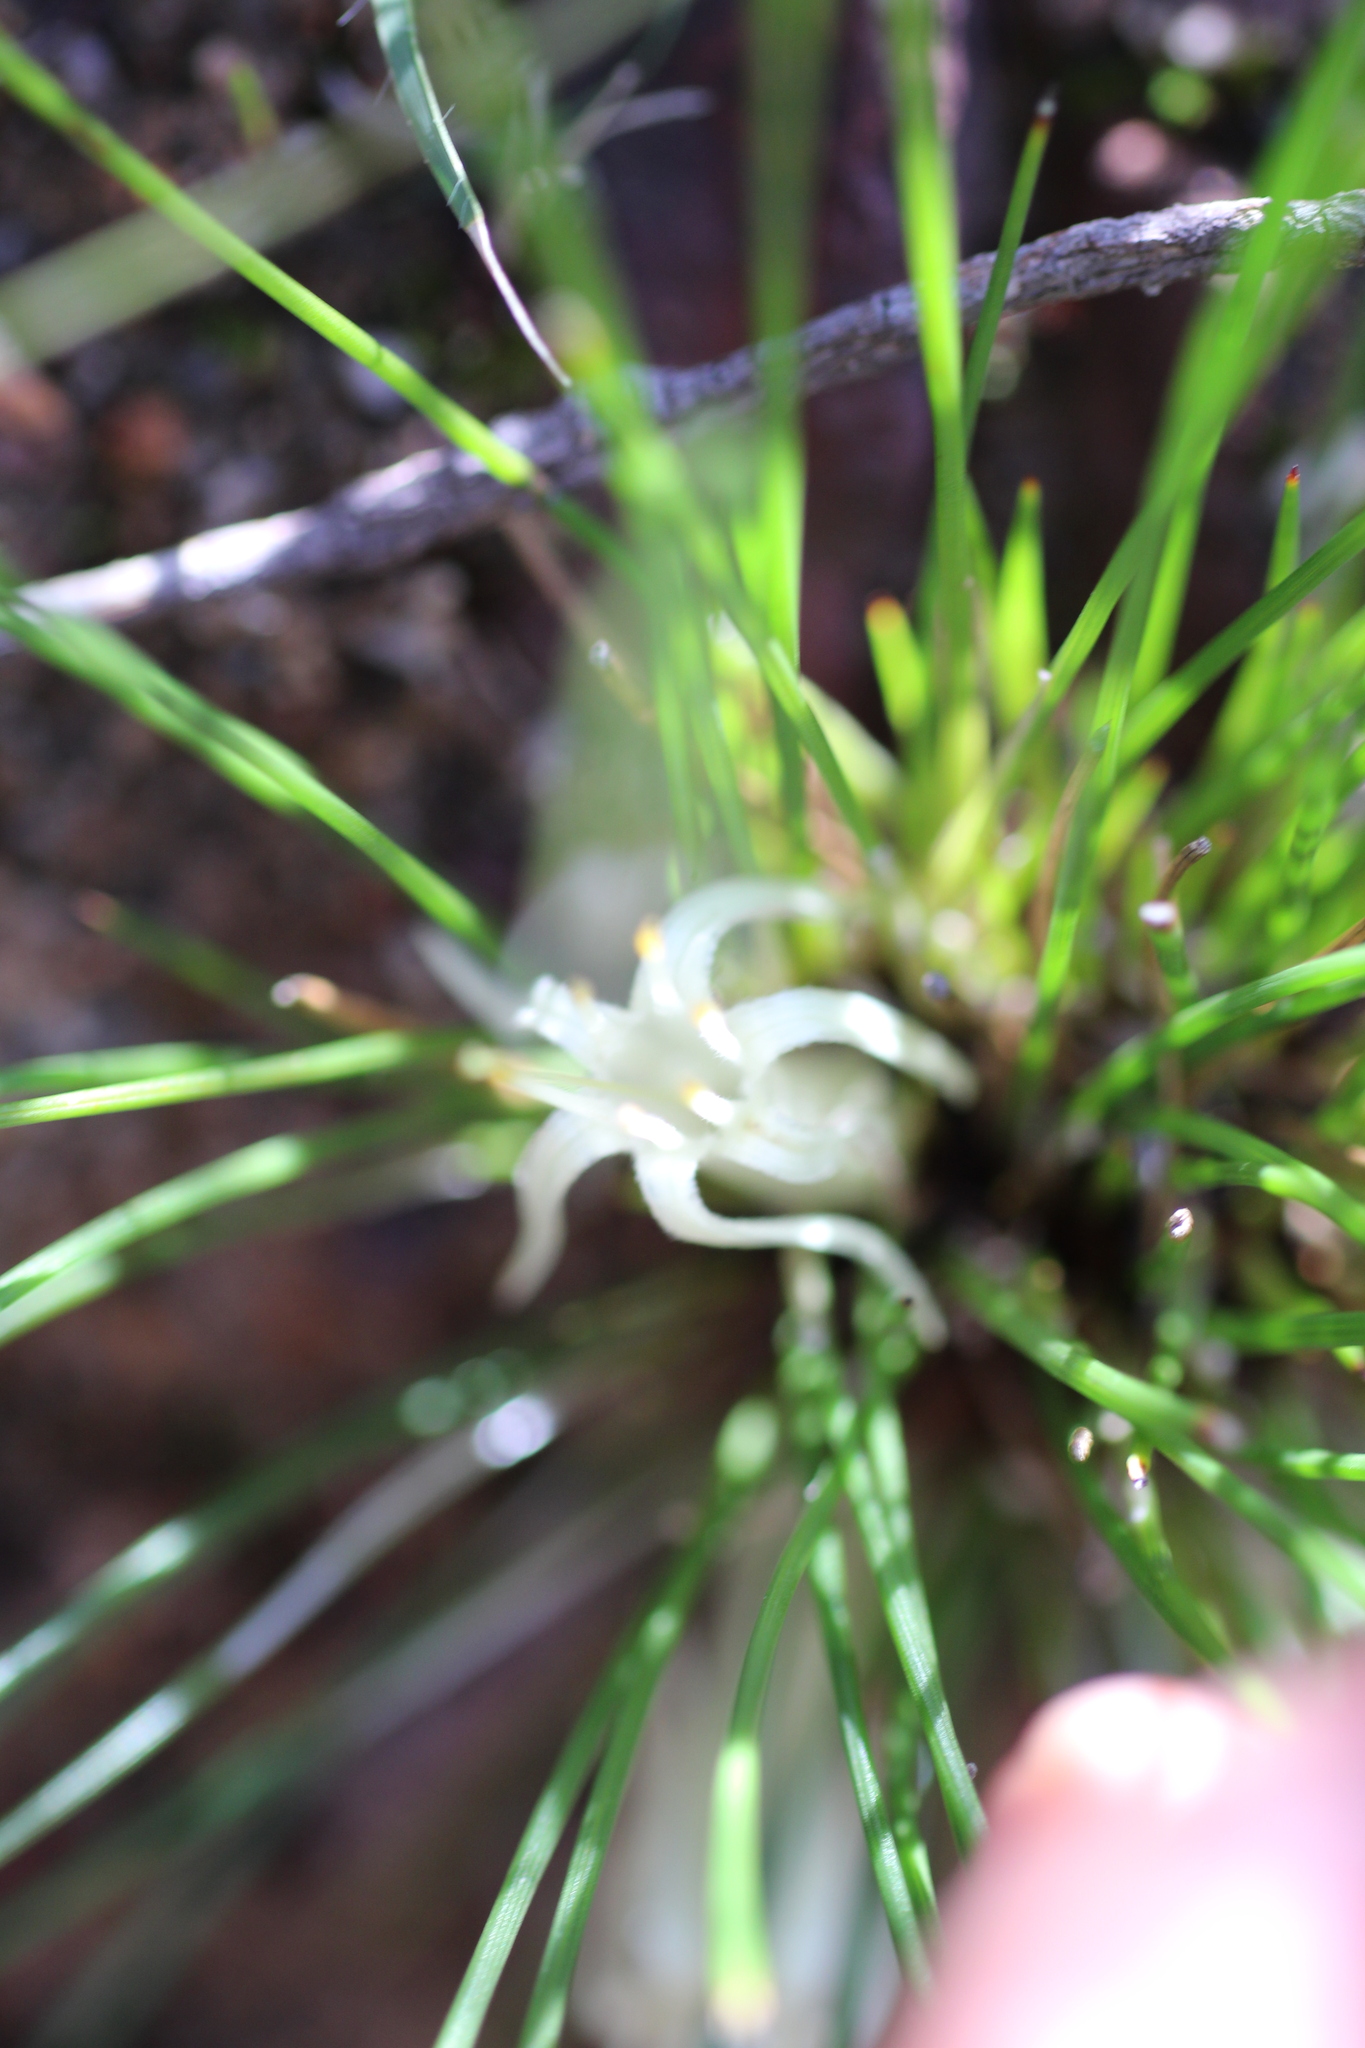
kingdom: Plantae
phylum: Tracheophyta
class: Liliopsida
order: Commelinales
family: Haemodoraceae
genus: Conostylis
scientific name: Conostylis androstemma
